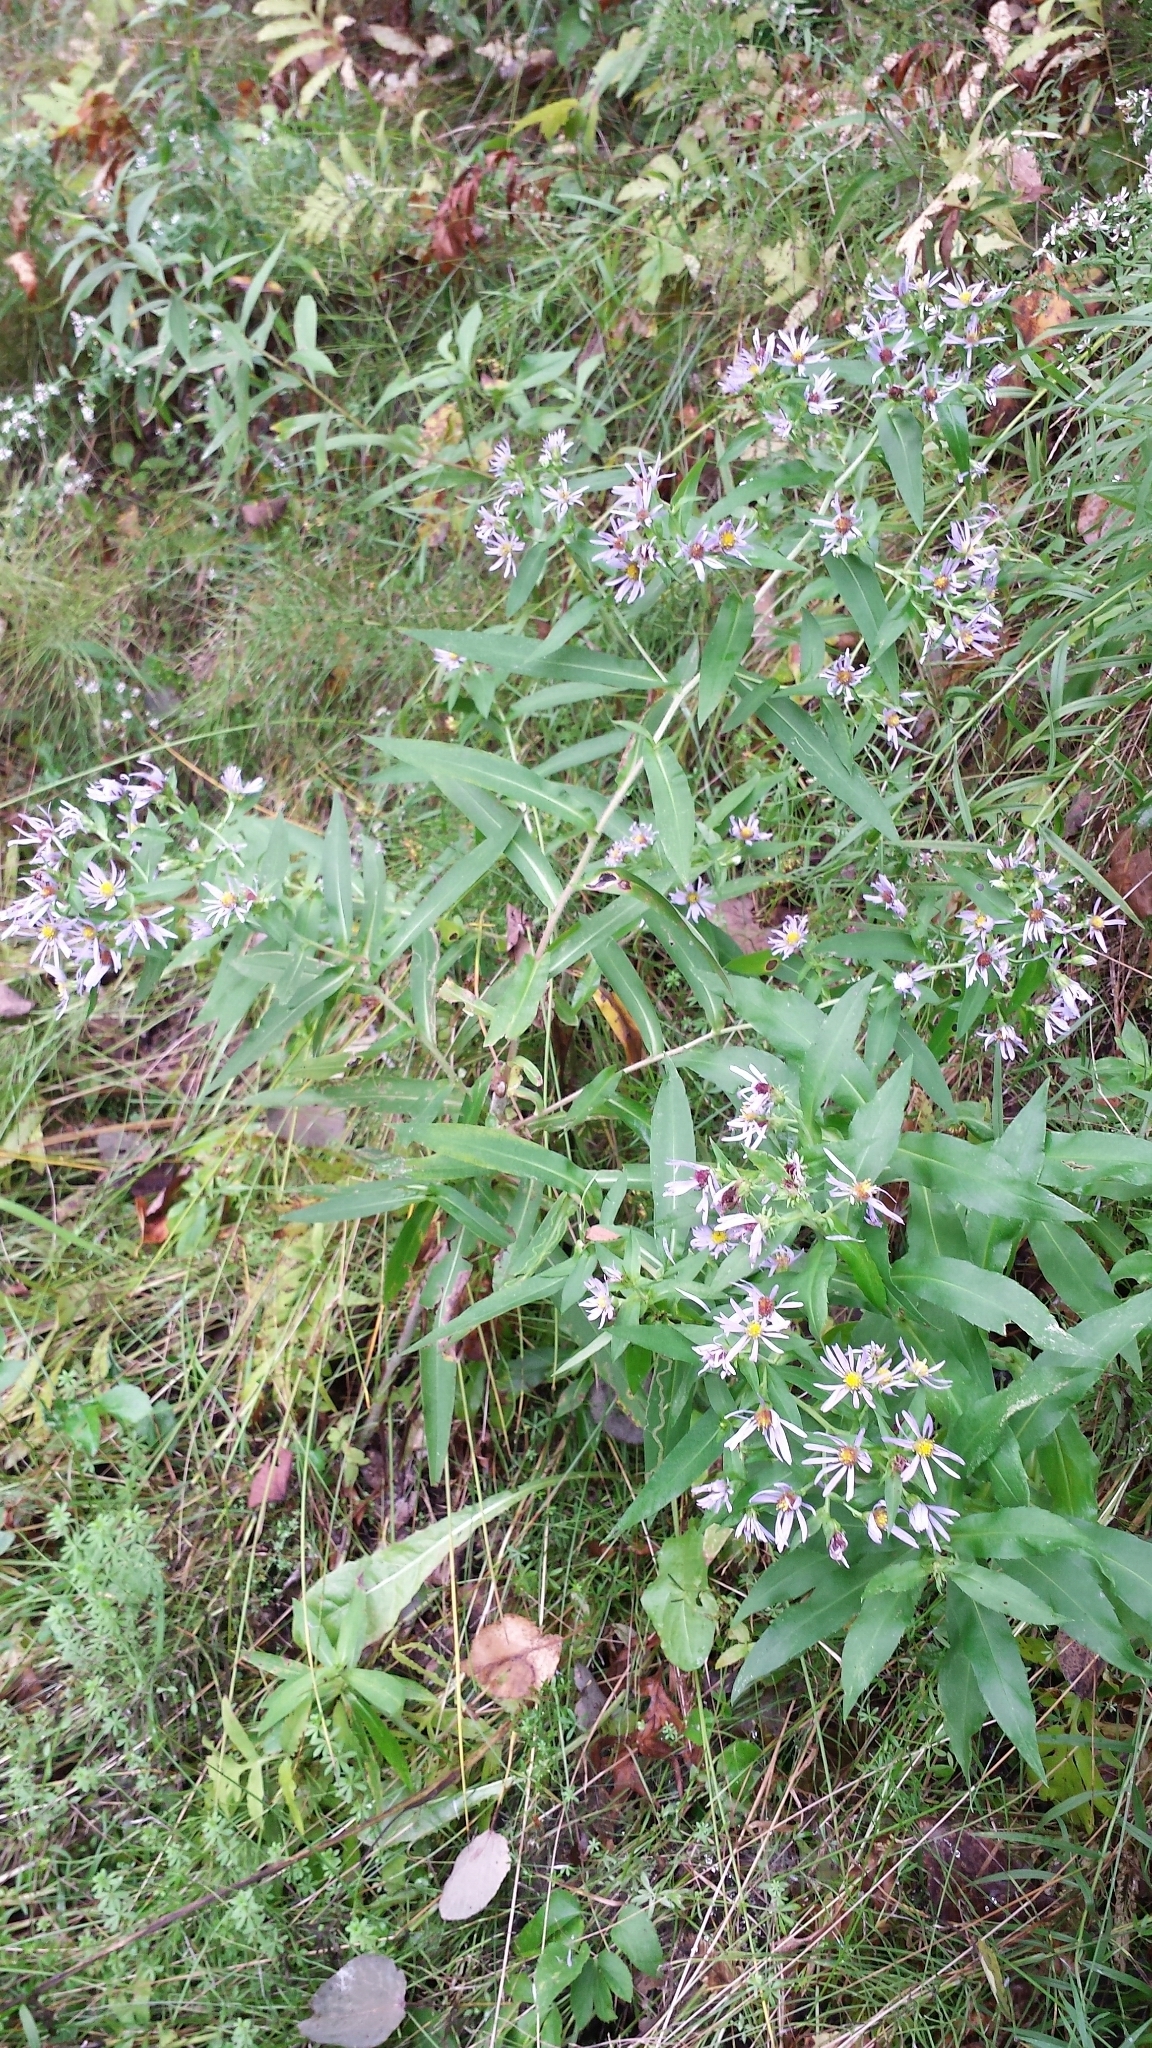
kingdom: Plantae
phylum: Tracheophyta
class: Magnoliopsida
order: Asterales
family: Asteraceae
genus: Symphyotrichum
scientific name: Symphyotrichum puniceum
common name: Bog aster
